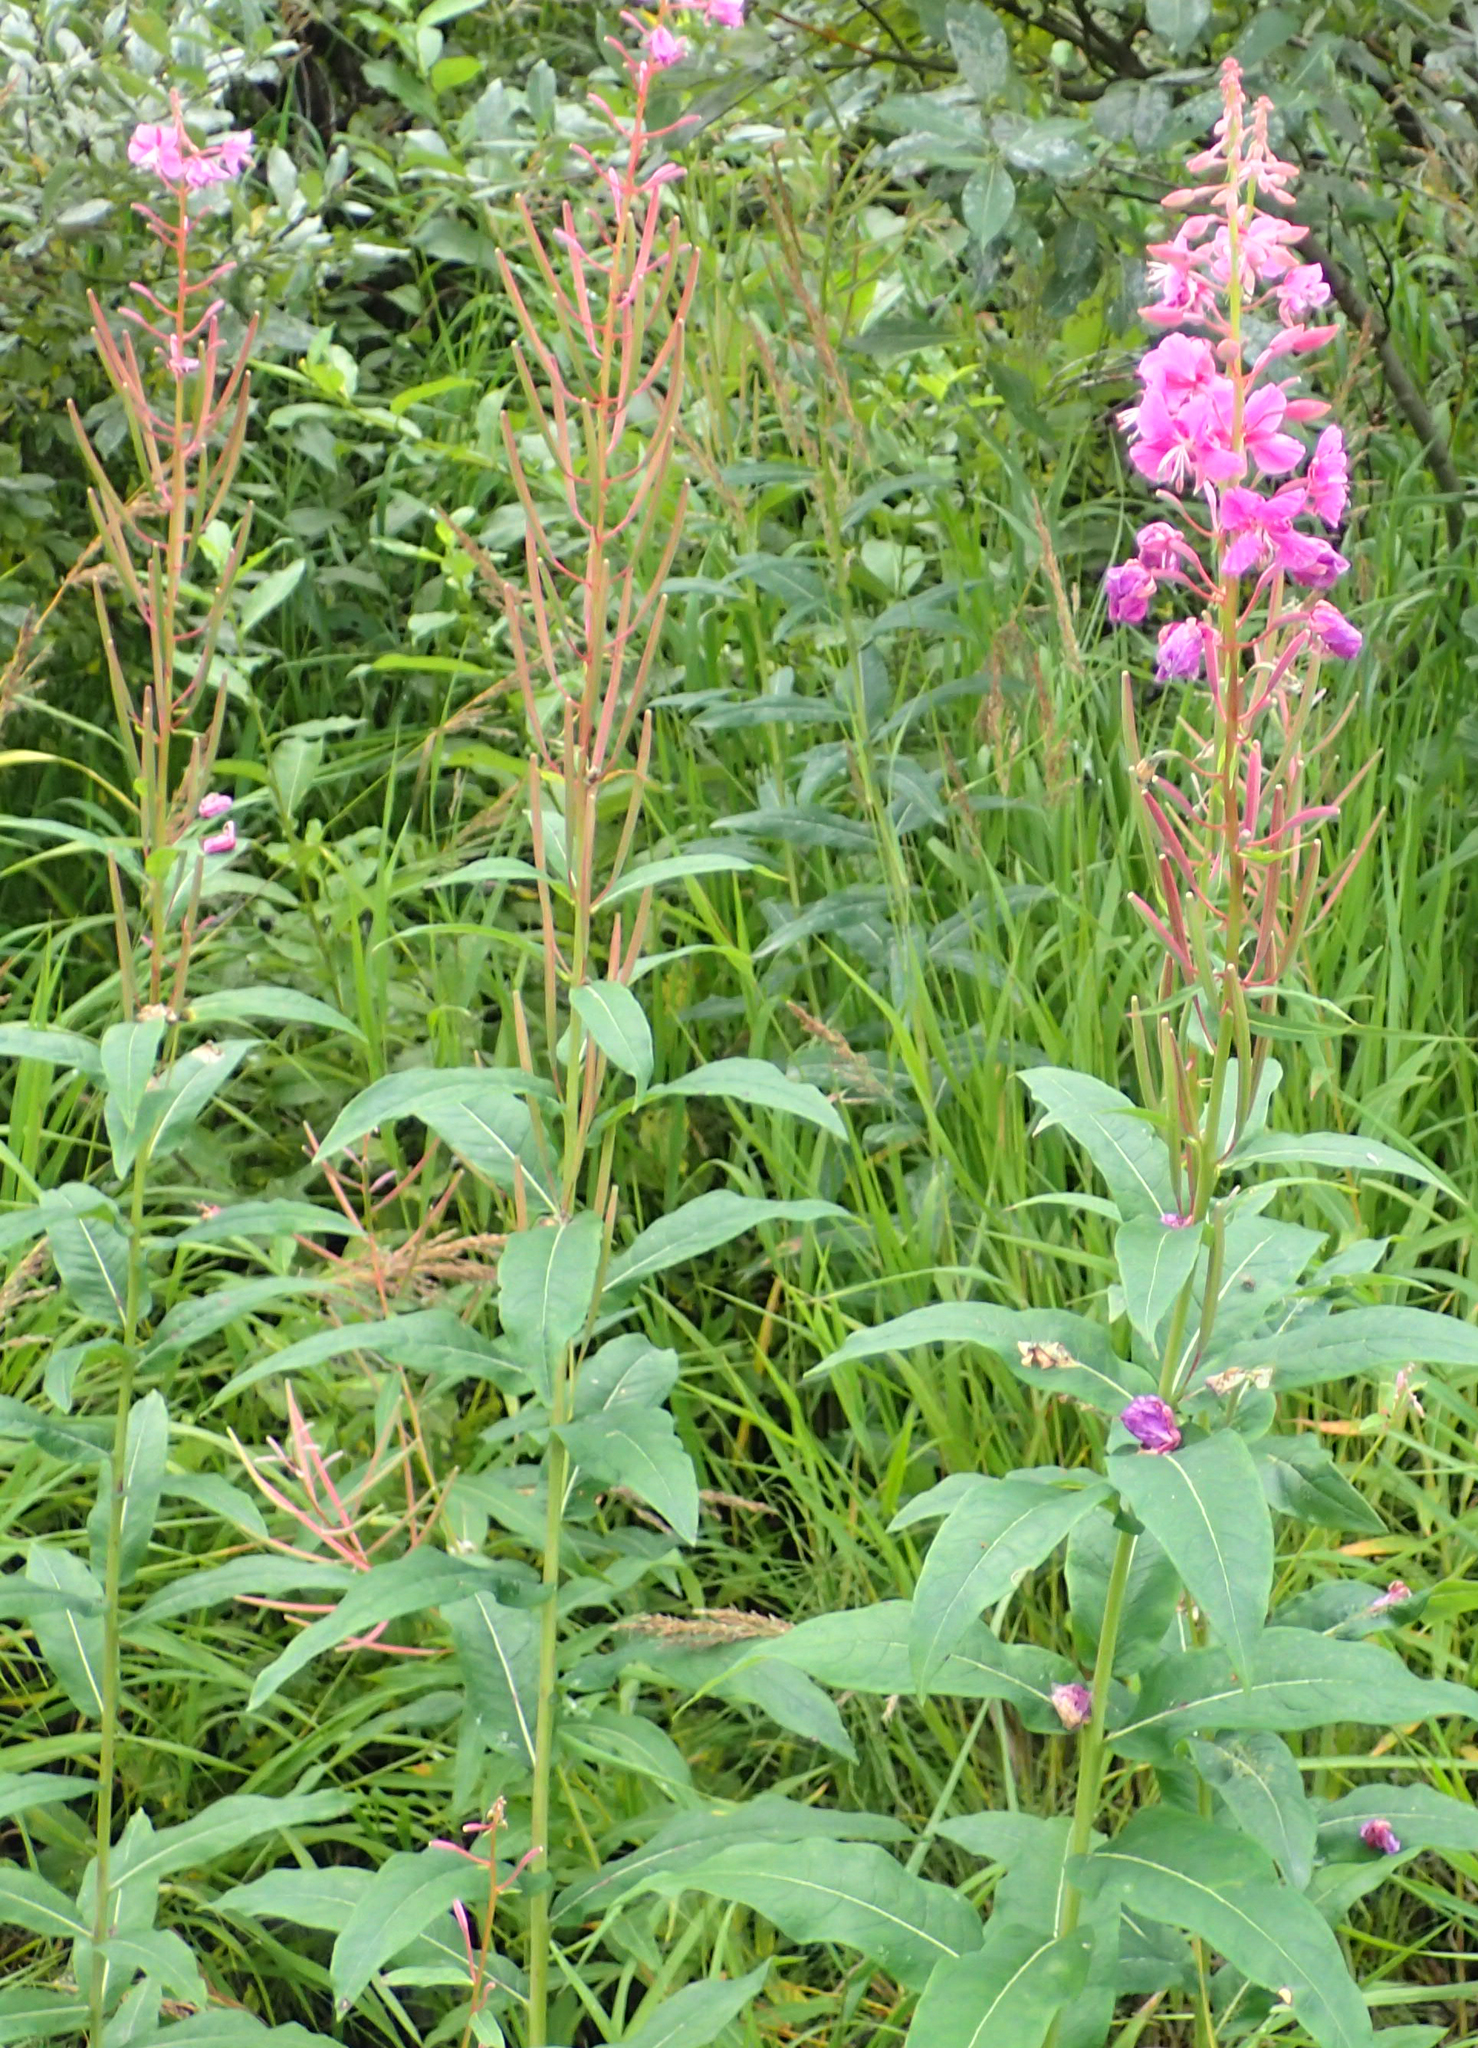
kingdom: Plantae
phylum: Tracheophyta
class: Magnoliopsida
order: Myrtales
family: Onagraceae
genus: Chamaenerion
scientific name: Chamaenerion angustifolium
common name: Fireweed
